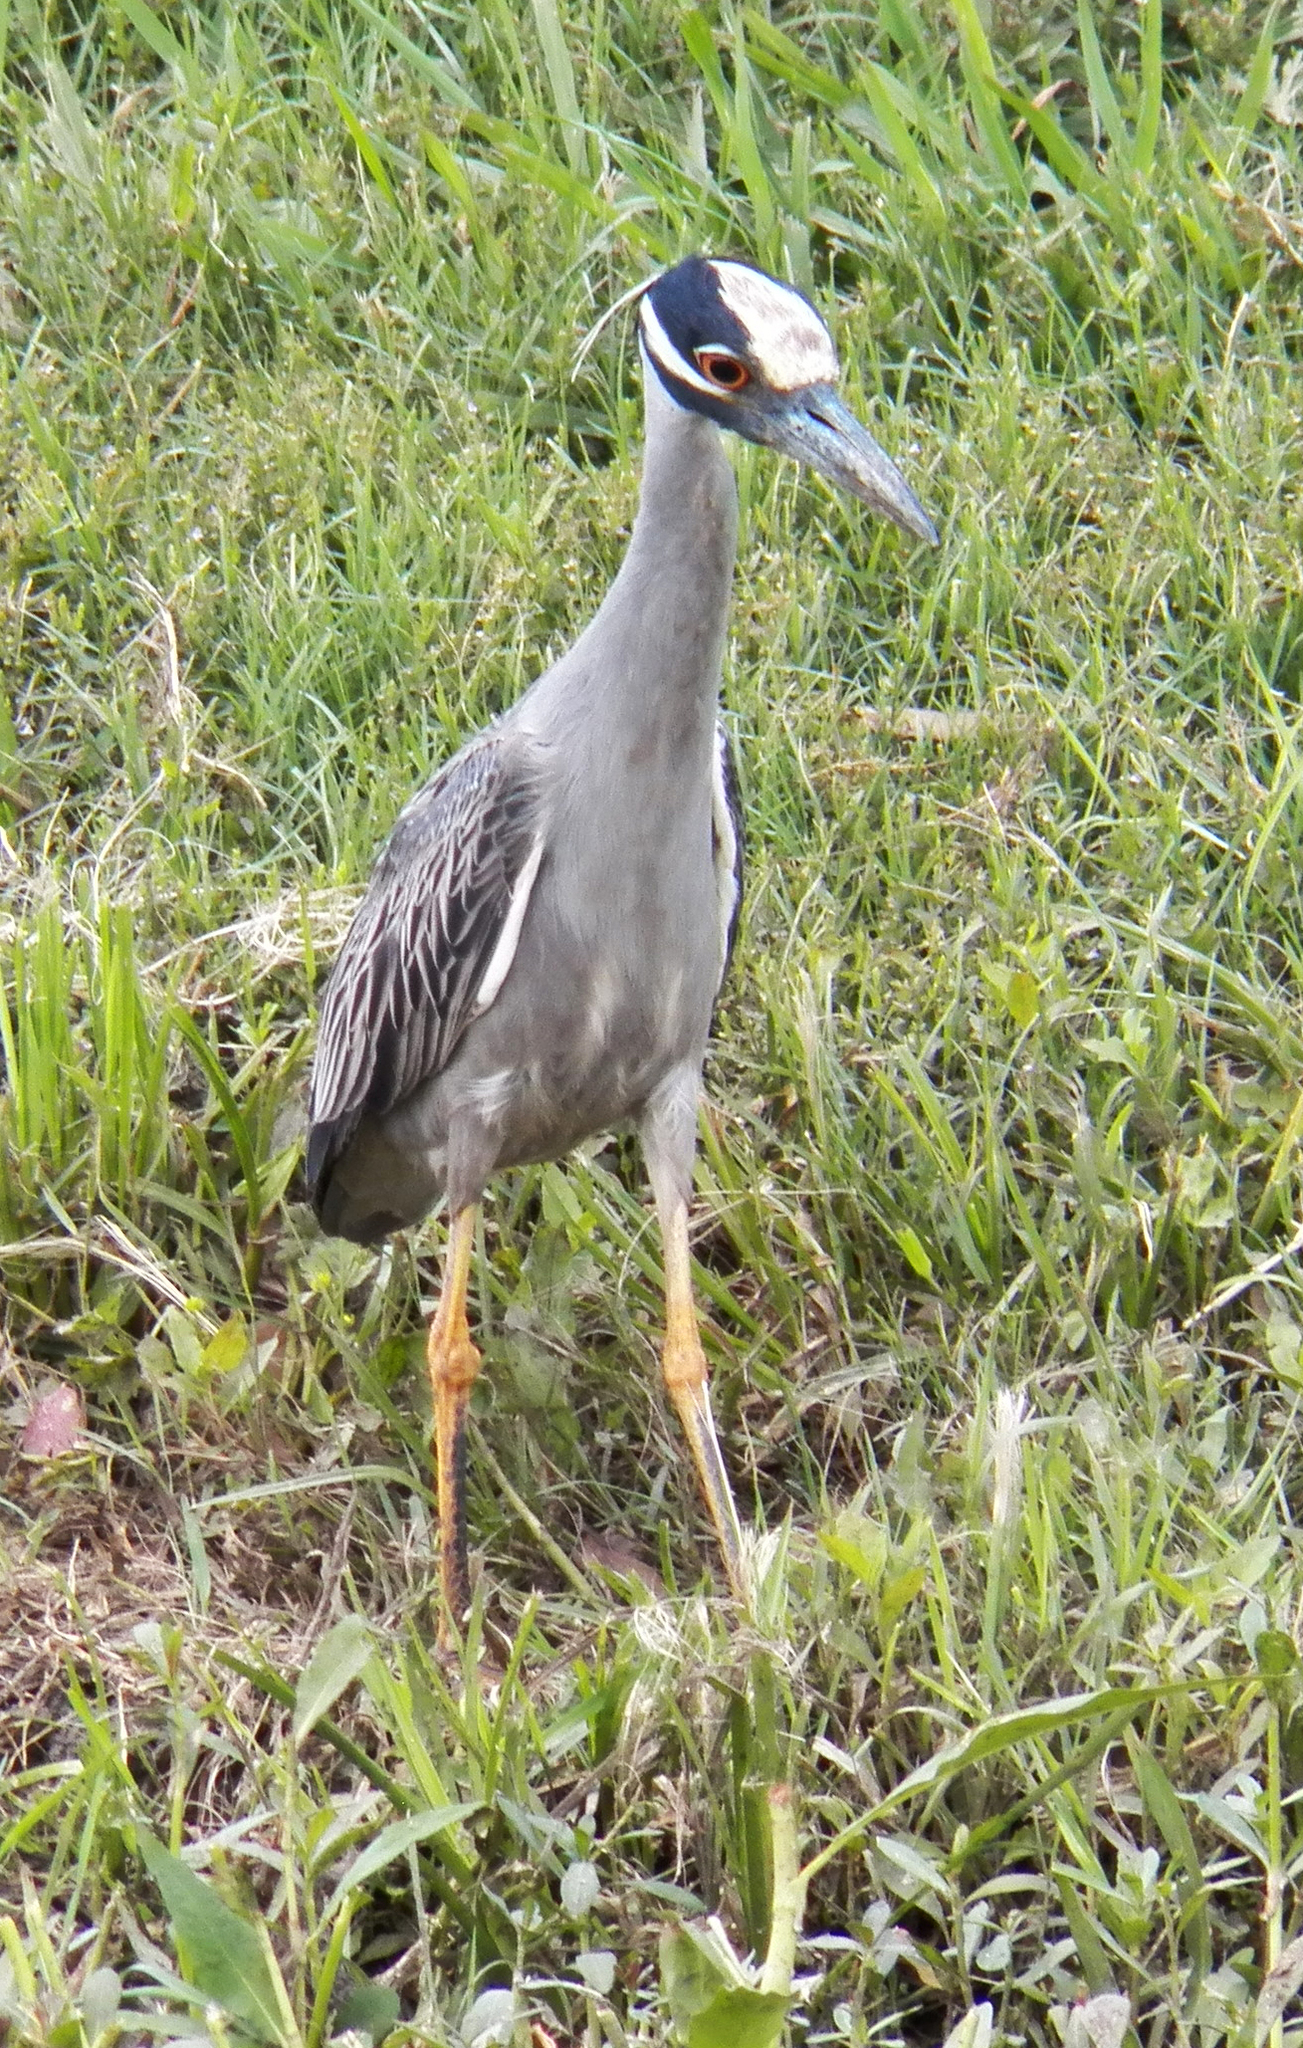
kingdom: Animalia
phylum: Chordata
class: Aves
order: Pelecaniformes
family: Ardeidae
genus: Nyctanassa
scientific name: Nyctanassa violacea
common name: Yellow-crowned night heron
